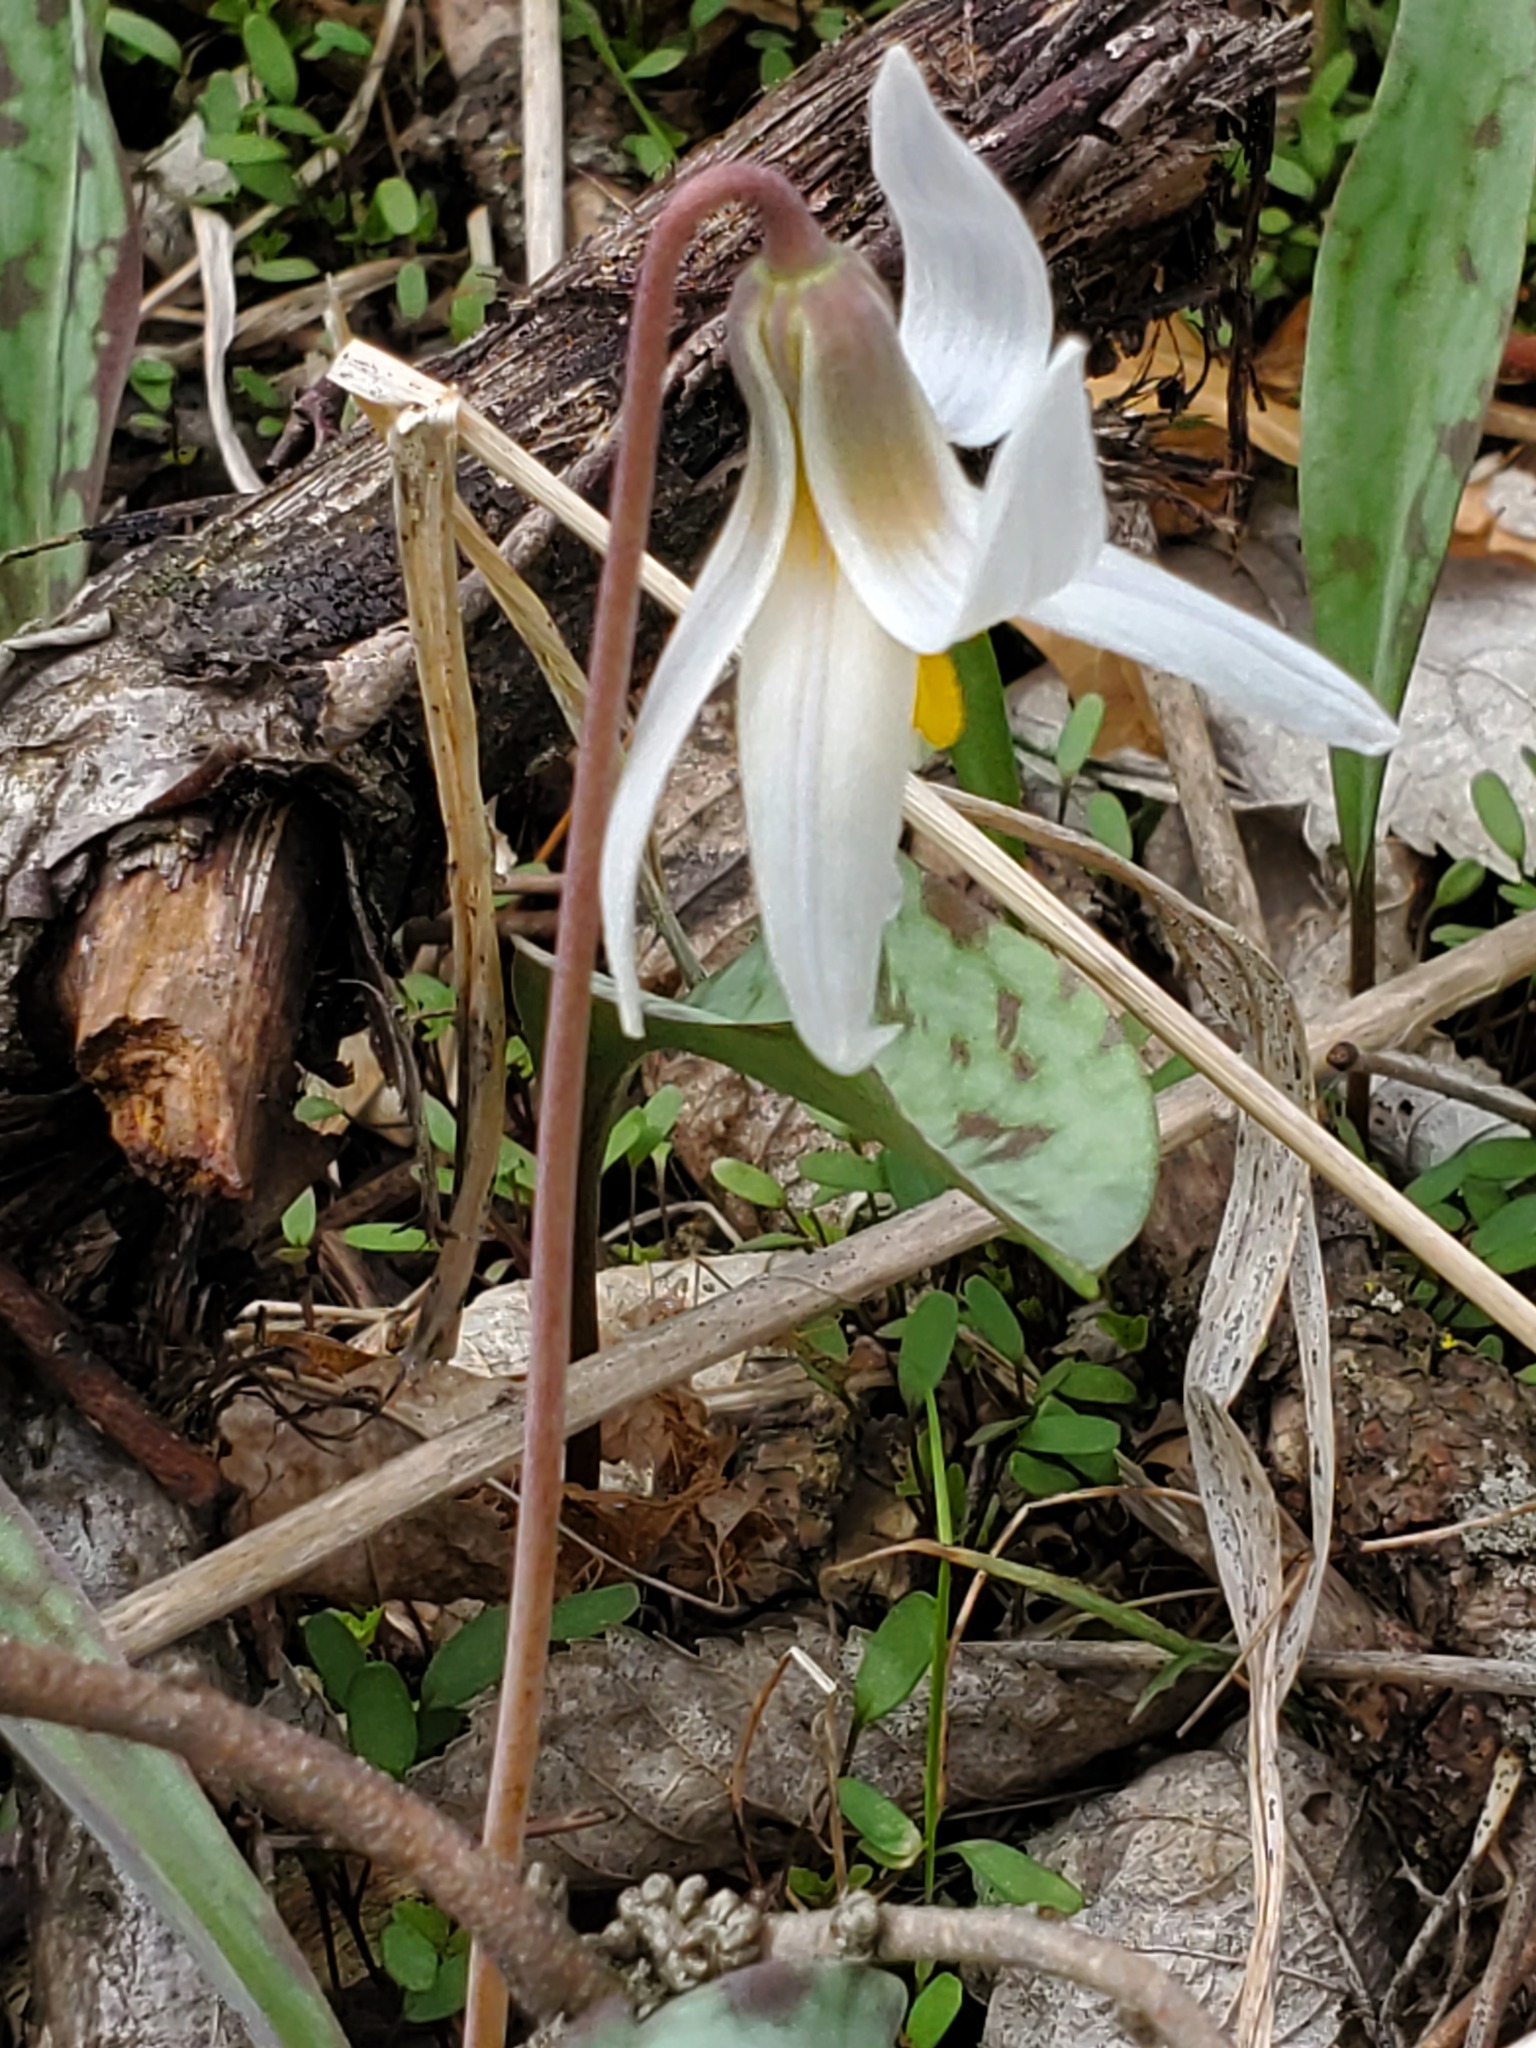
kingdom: Plantae
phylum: Tracheophyta
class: Liliopsida
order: Liliales
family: Liliaceae
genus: Erythronium
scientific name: Erythronium albidum
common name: White trout-lily
